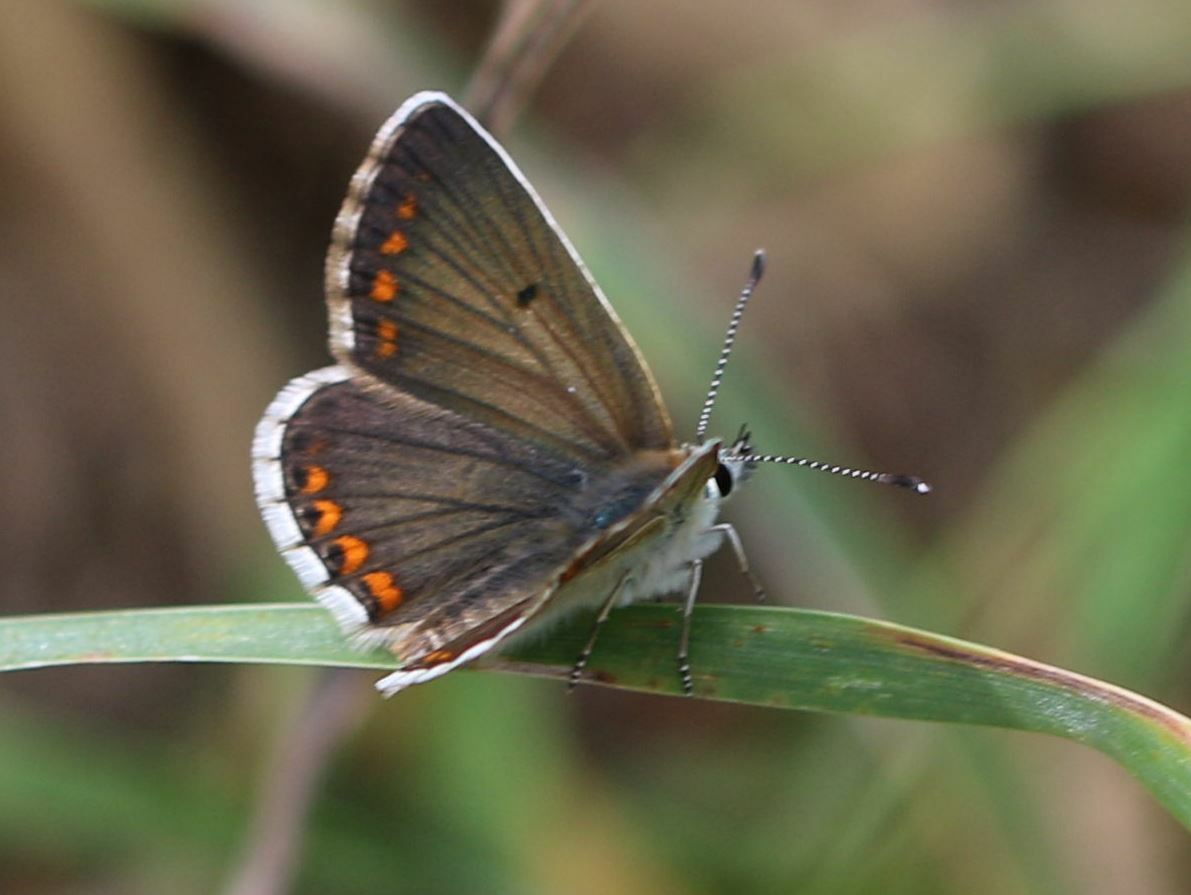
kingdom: Animalia
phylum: Arthropoda
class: Insecta
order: Lepidoptera
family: Lycaenidae
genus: Aricia
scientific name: Aricia agestis
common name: Brown argus
